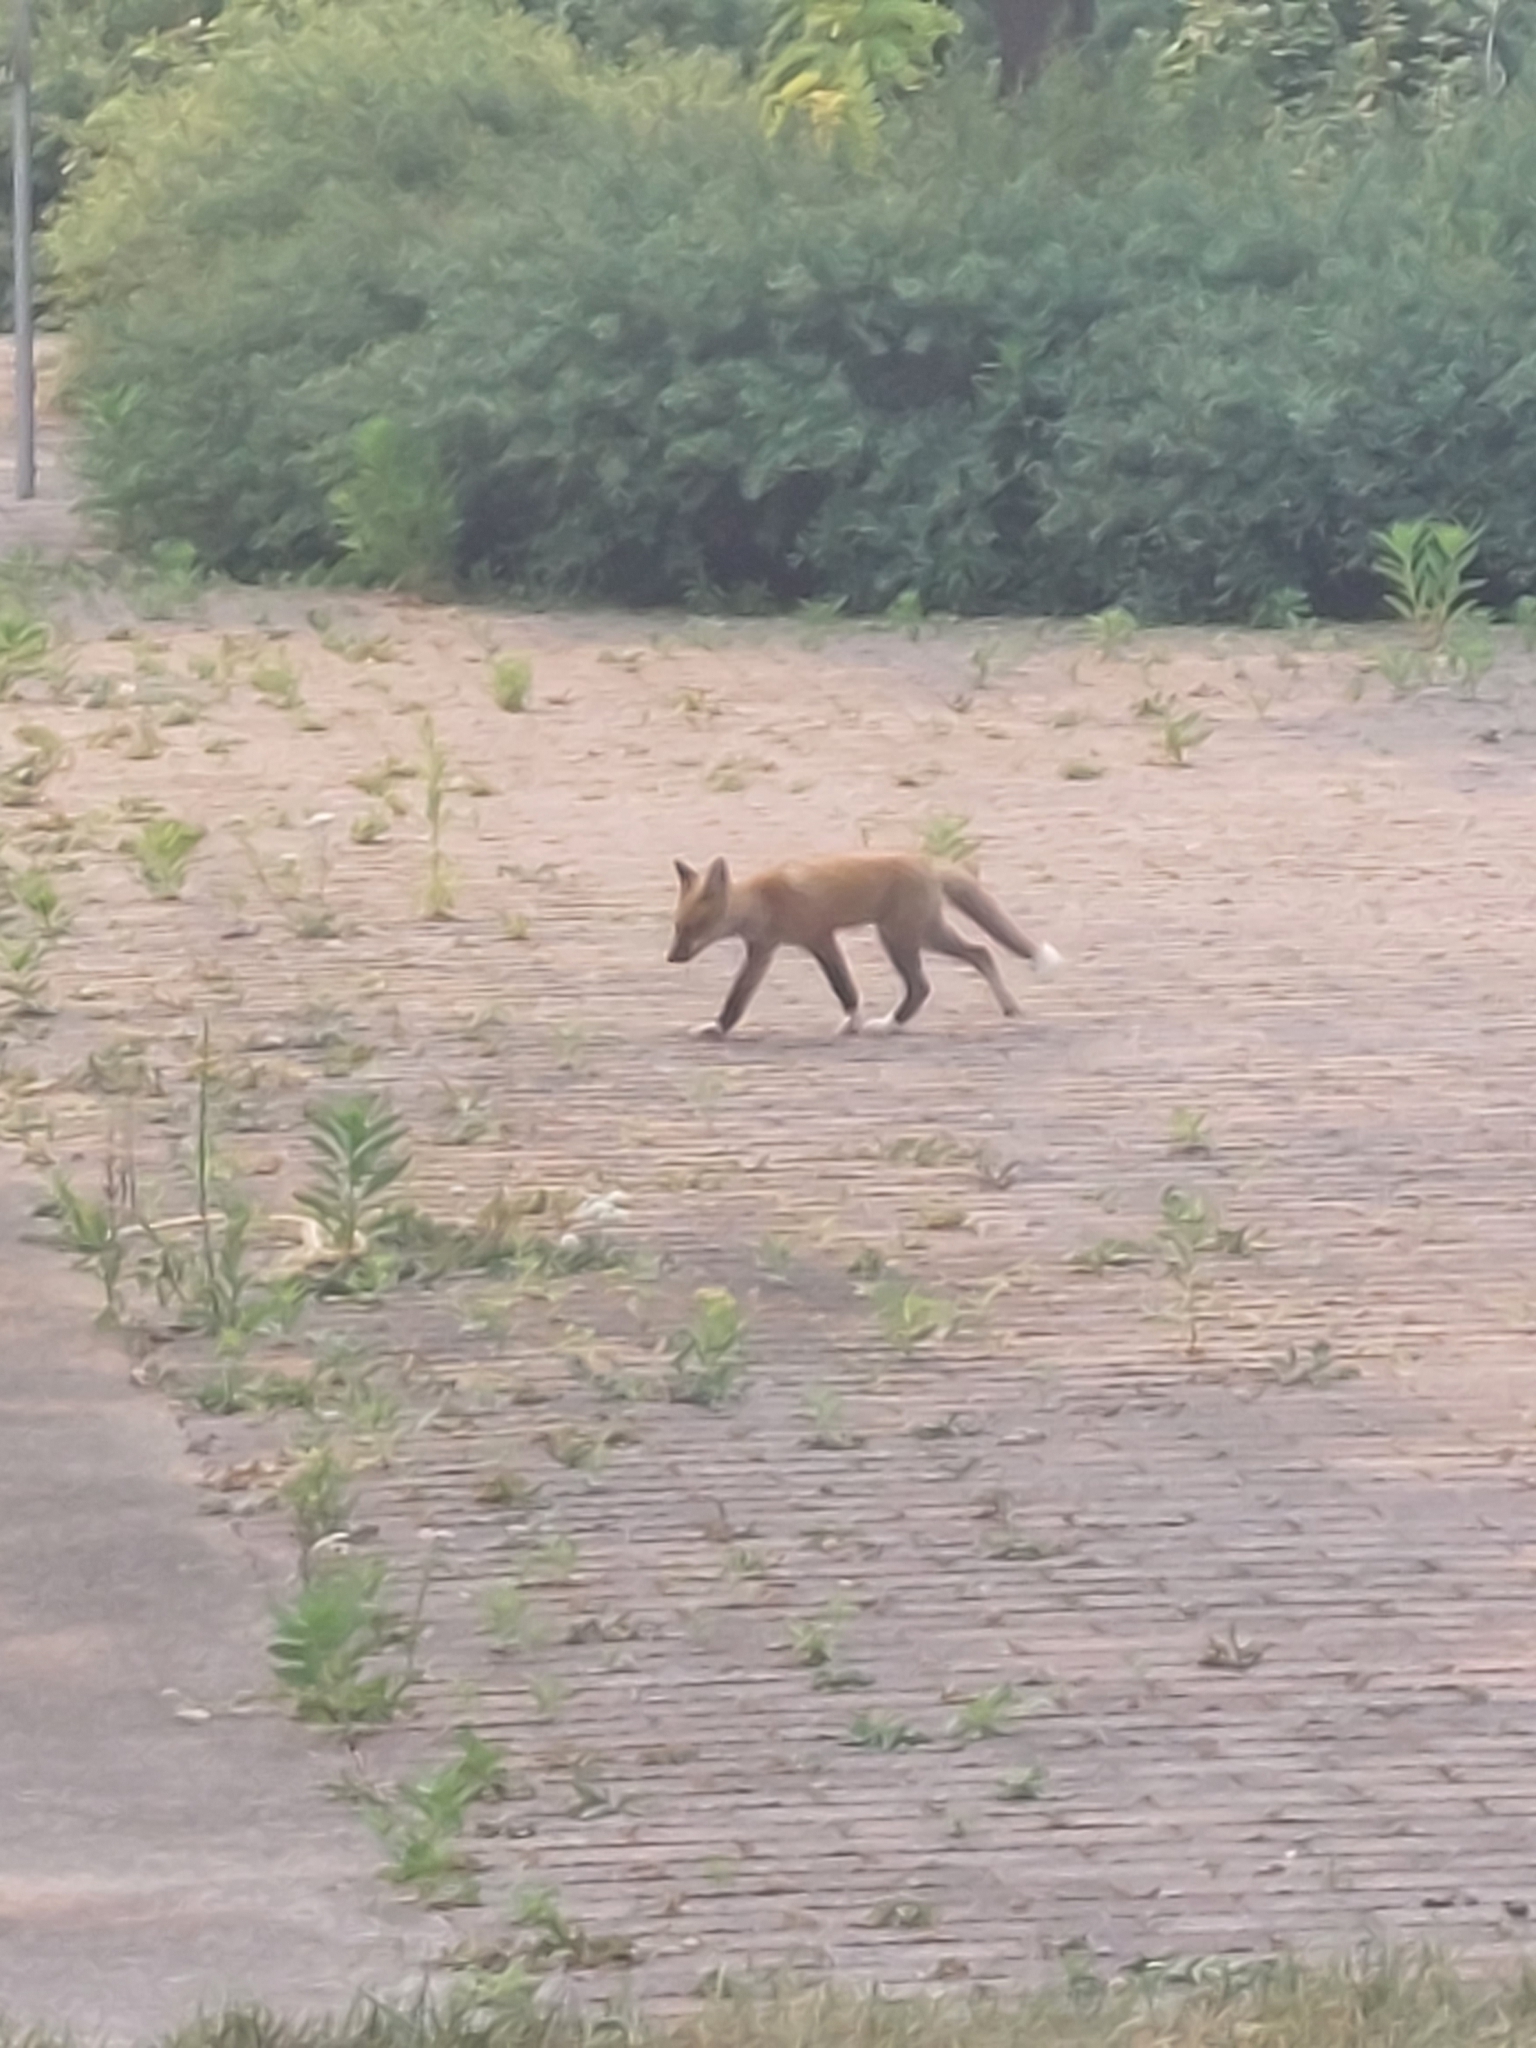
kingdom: Animalia
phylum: Chordata
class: Mammalia
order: Carnivora
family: Canidae
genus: Vulpes
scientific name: Vulpes vulpes
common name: Red fox
